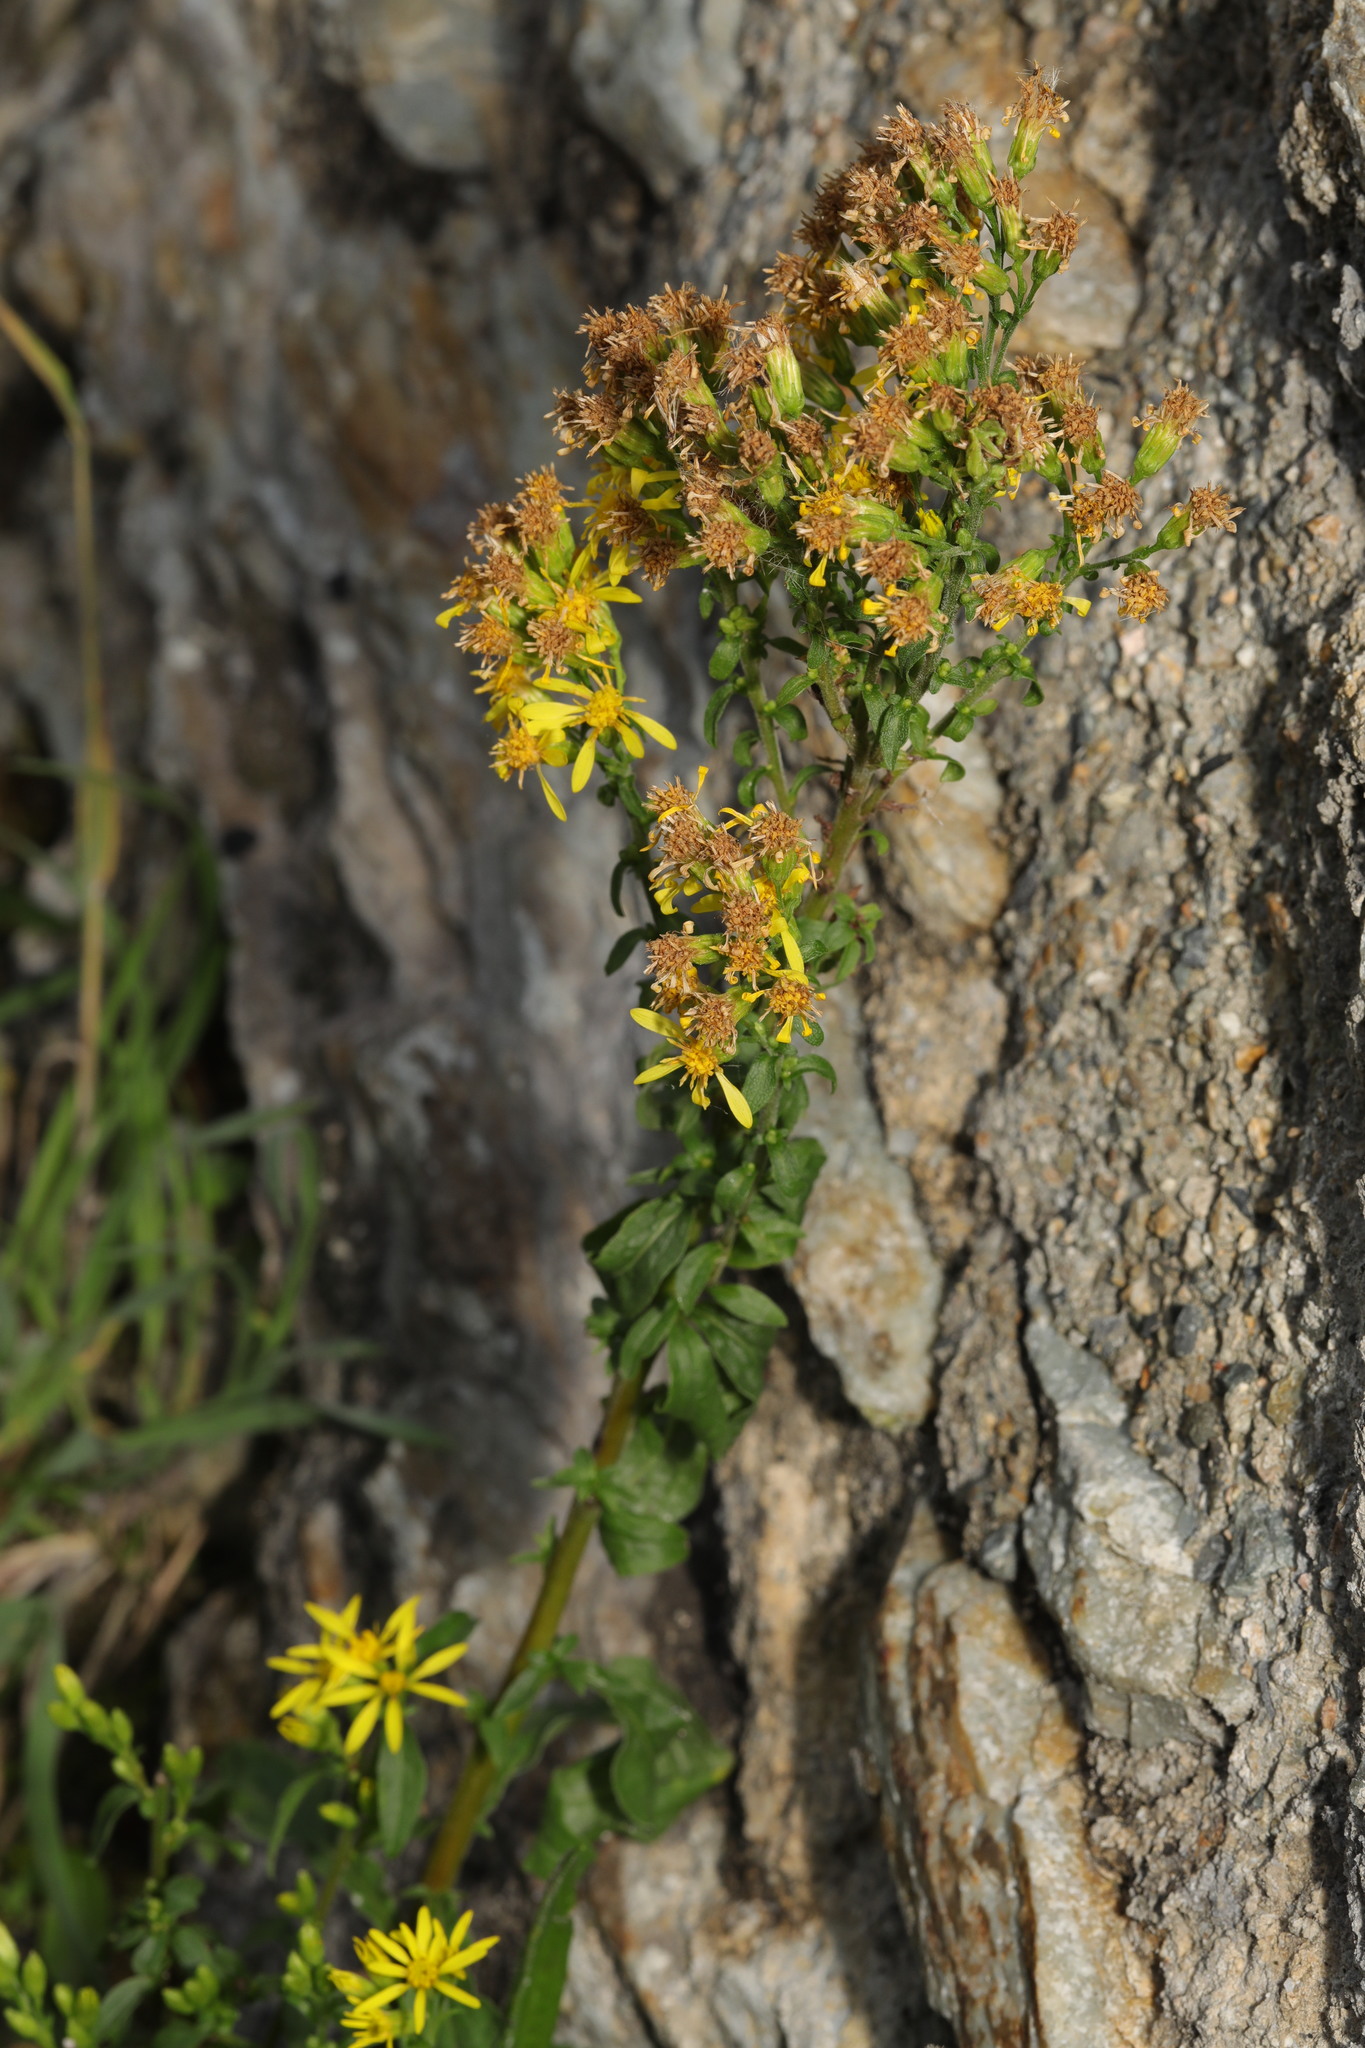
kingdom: Plantae
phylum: Tracheophyta
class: Magnoliopsida
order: Asterales
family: Asteraceae
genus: Jacobaea
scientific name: Jacobaea vulgaris
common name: Stinking willie
